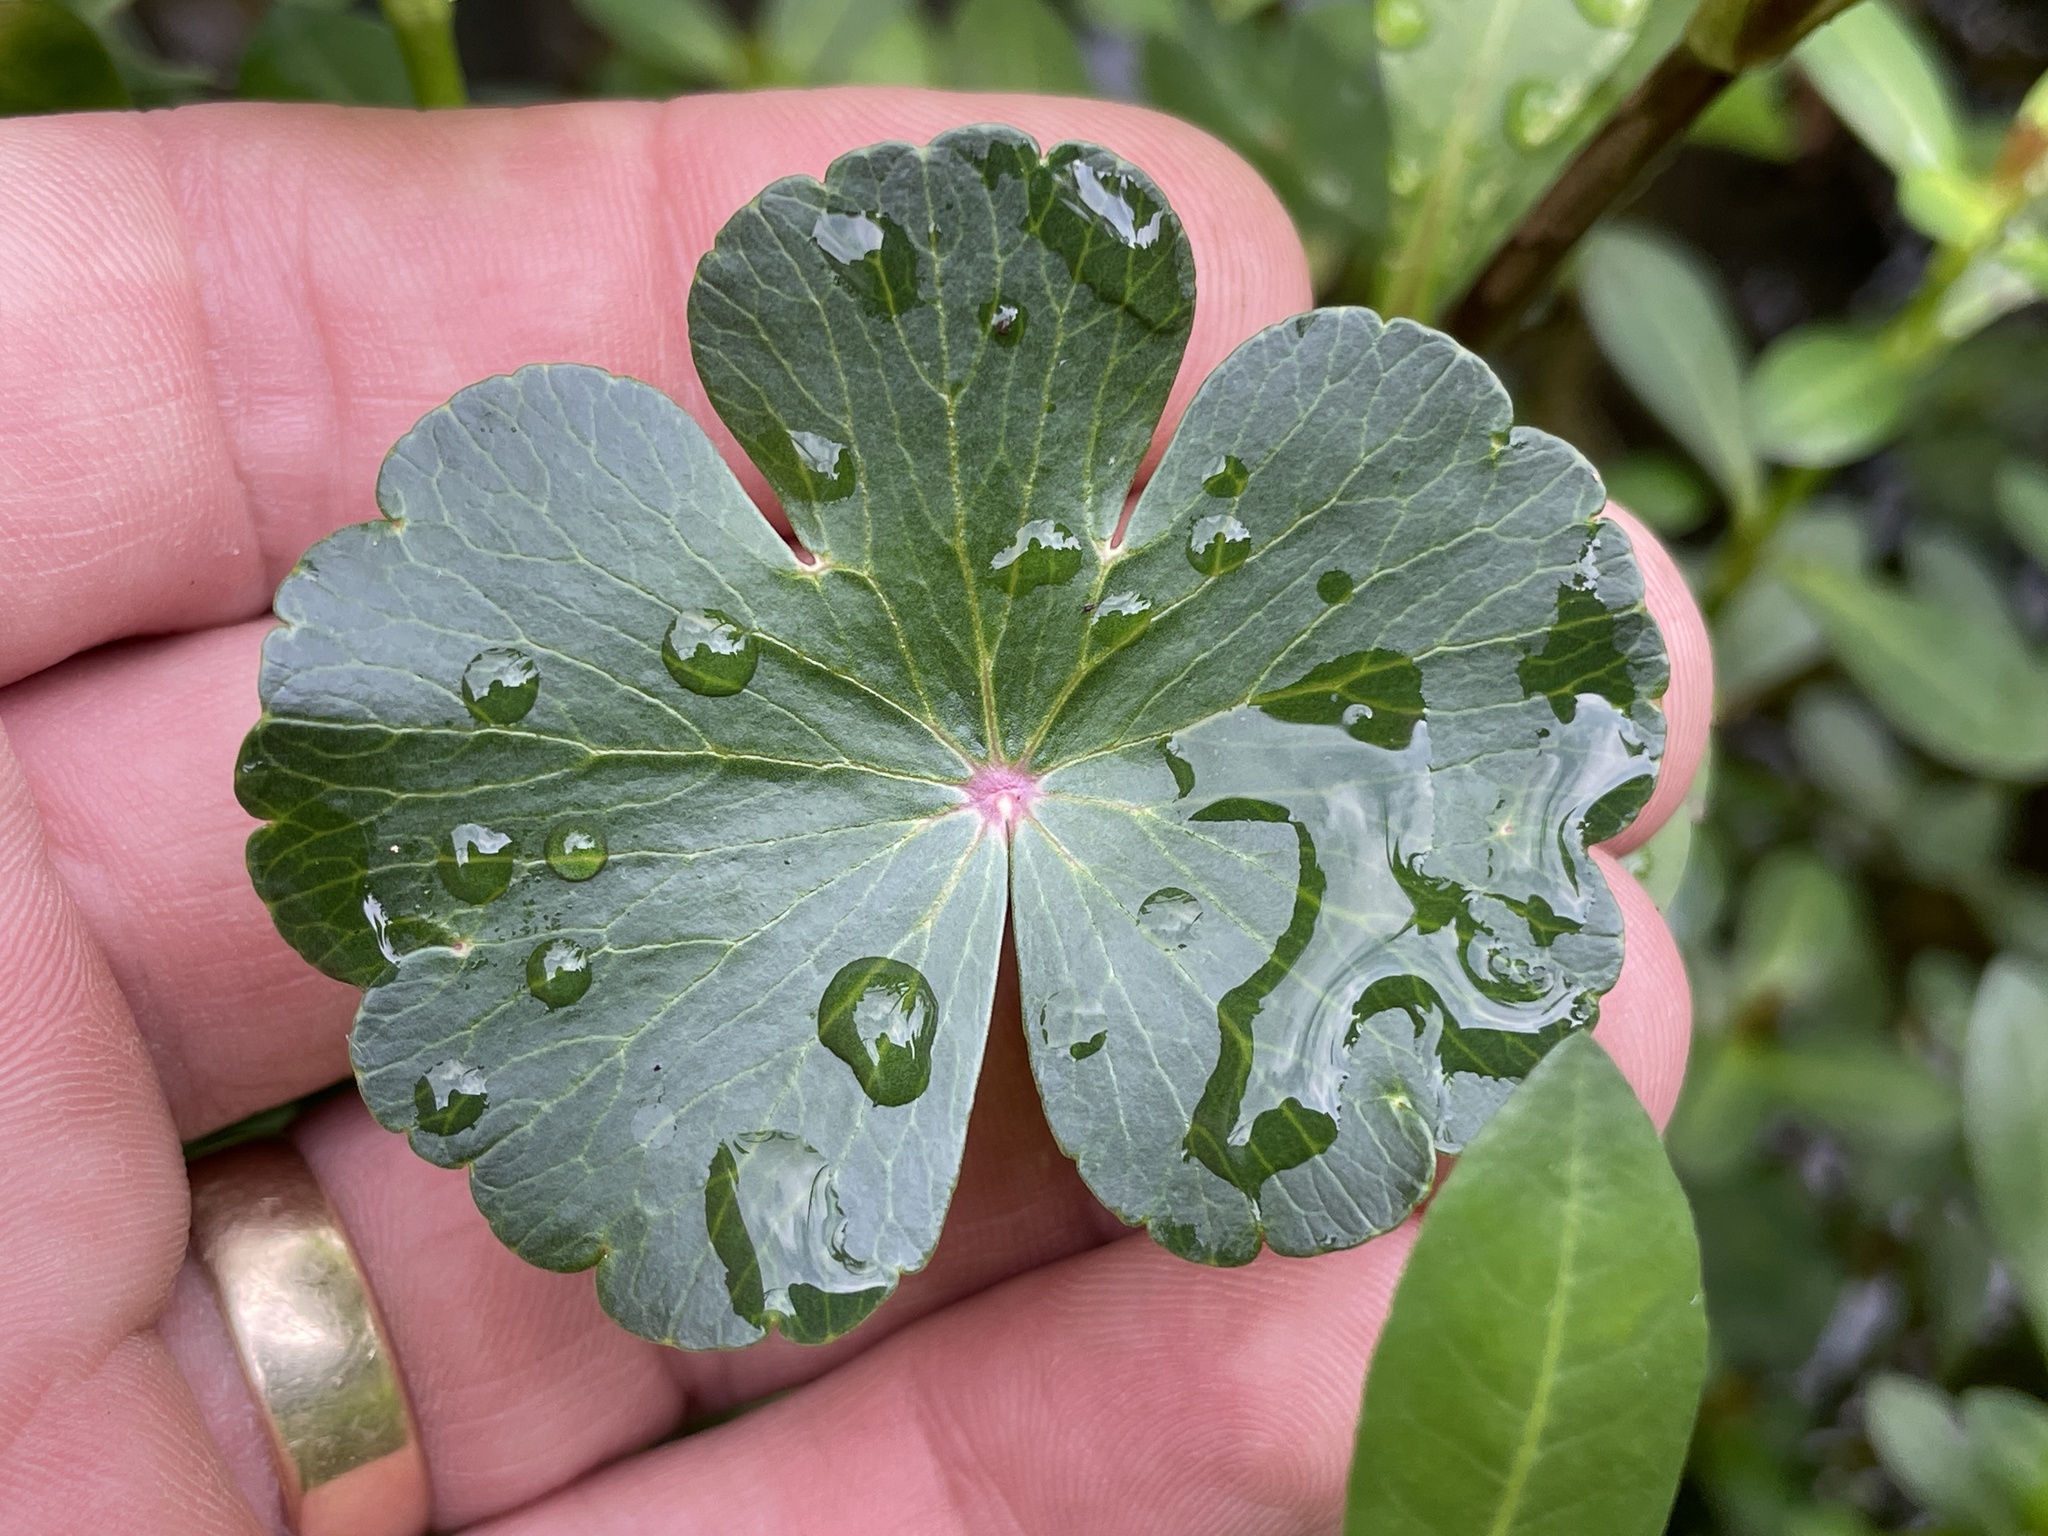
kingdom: Plantae
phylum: Tracheophyta
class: Magnoliopsida
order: Apiales
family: Araliaceae
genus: Hydrocotyle
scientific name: Hydrocotyle ranunculoides
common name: Floating pennywort
